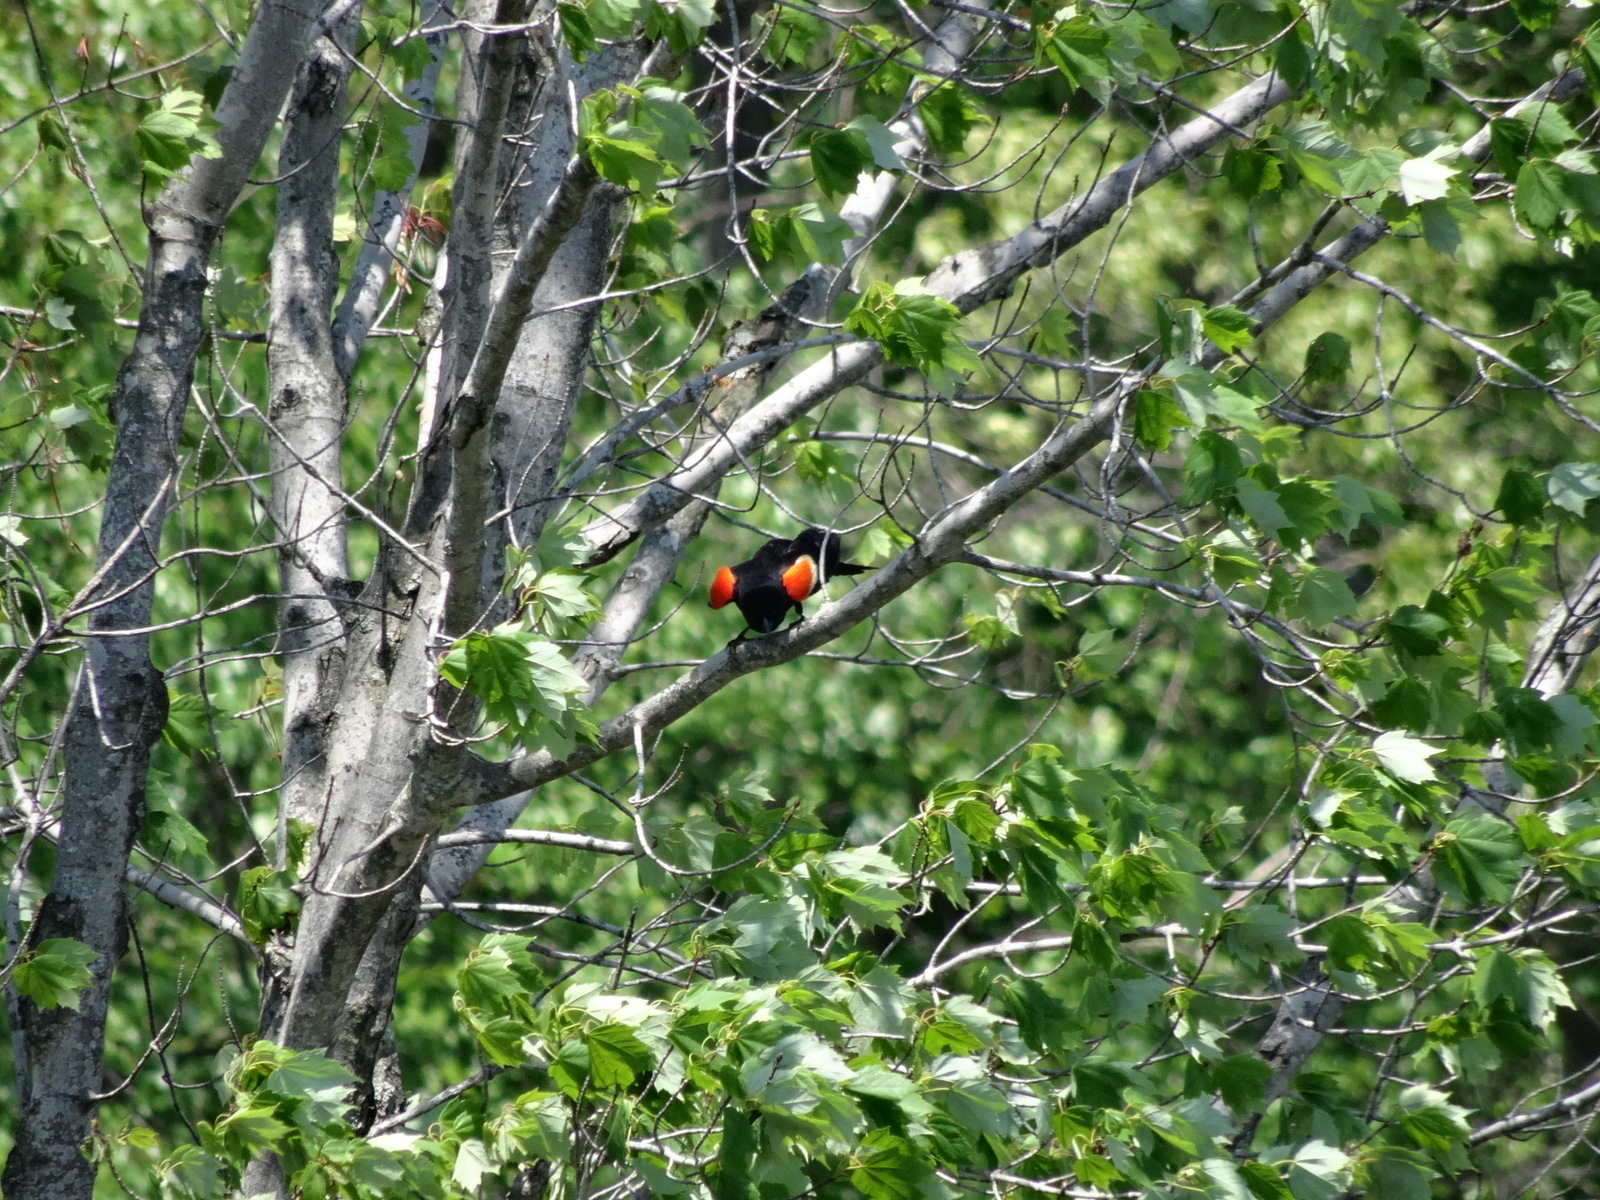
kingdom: Animalia
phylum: Chordata
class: Aves
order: Passeriformes
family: Icteridae
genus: Agelaius
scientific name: Agelaius phoeniceus
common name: Red-winged blackbird
